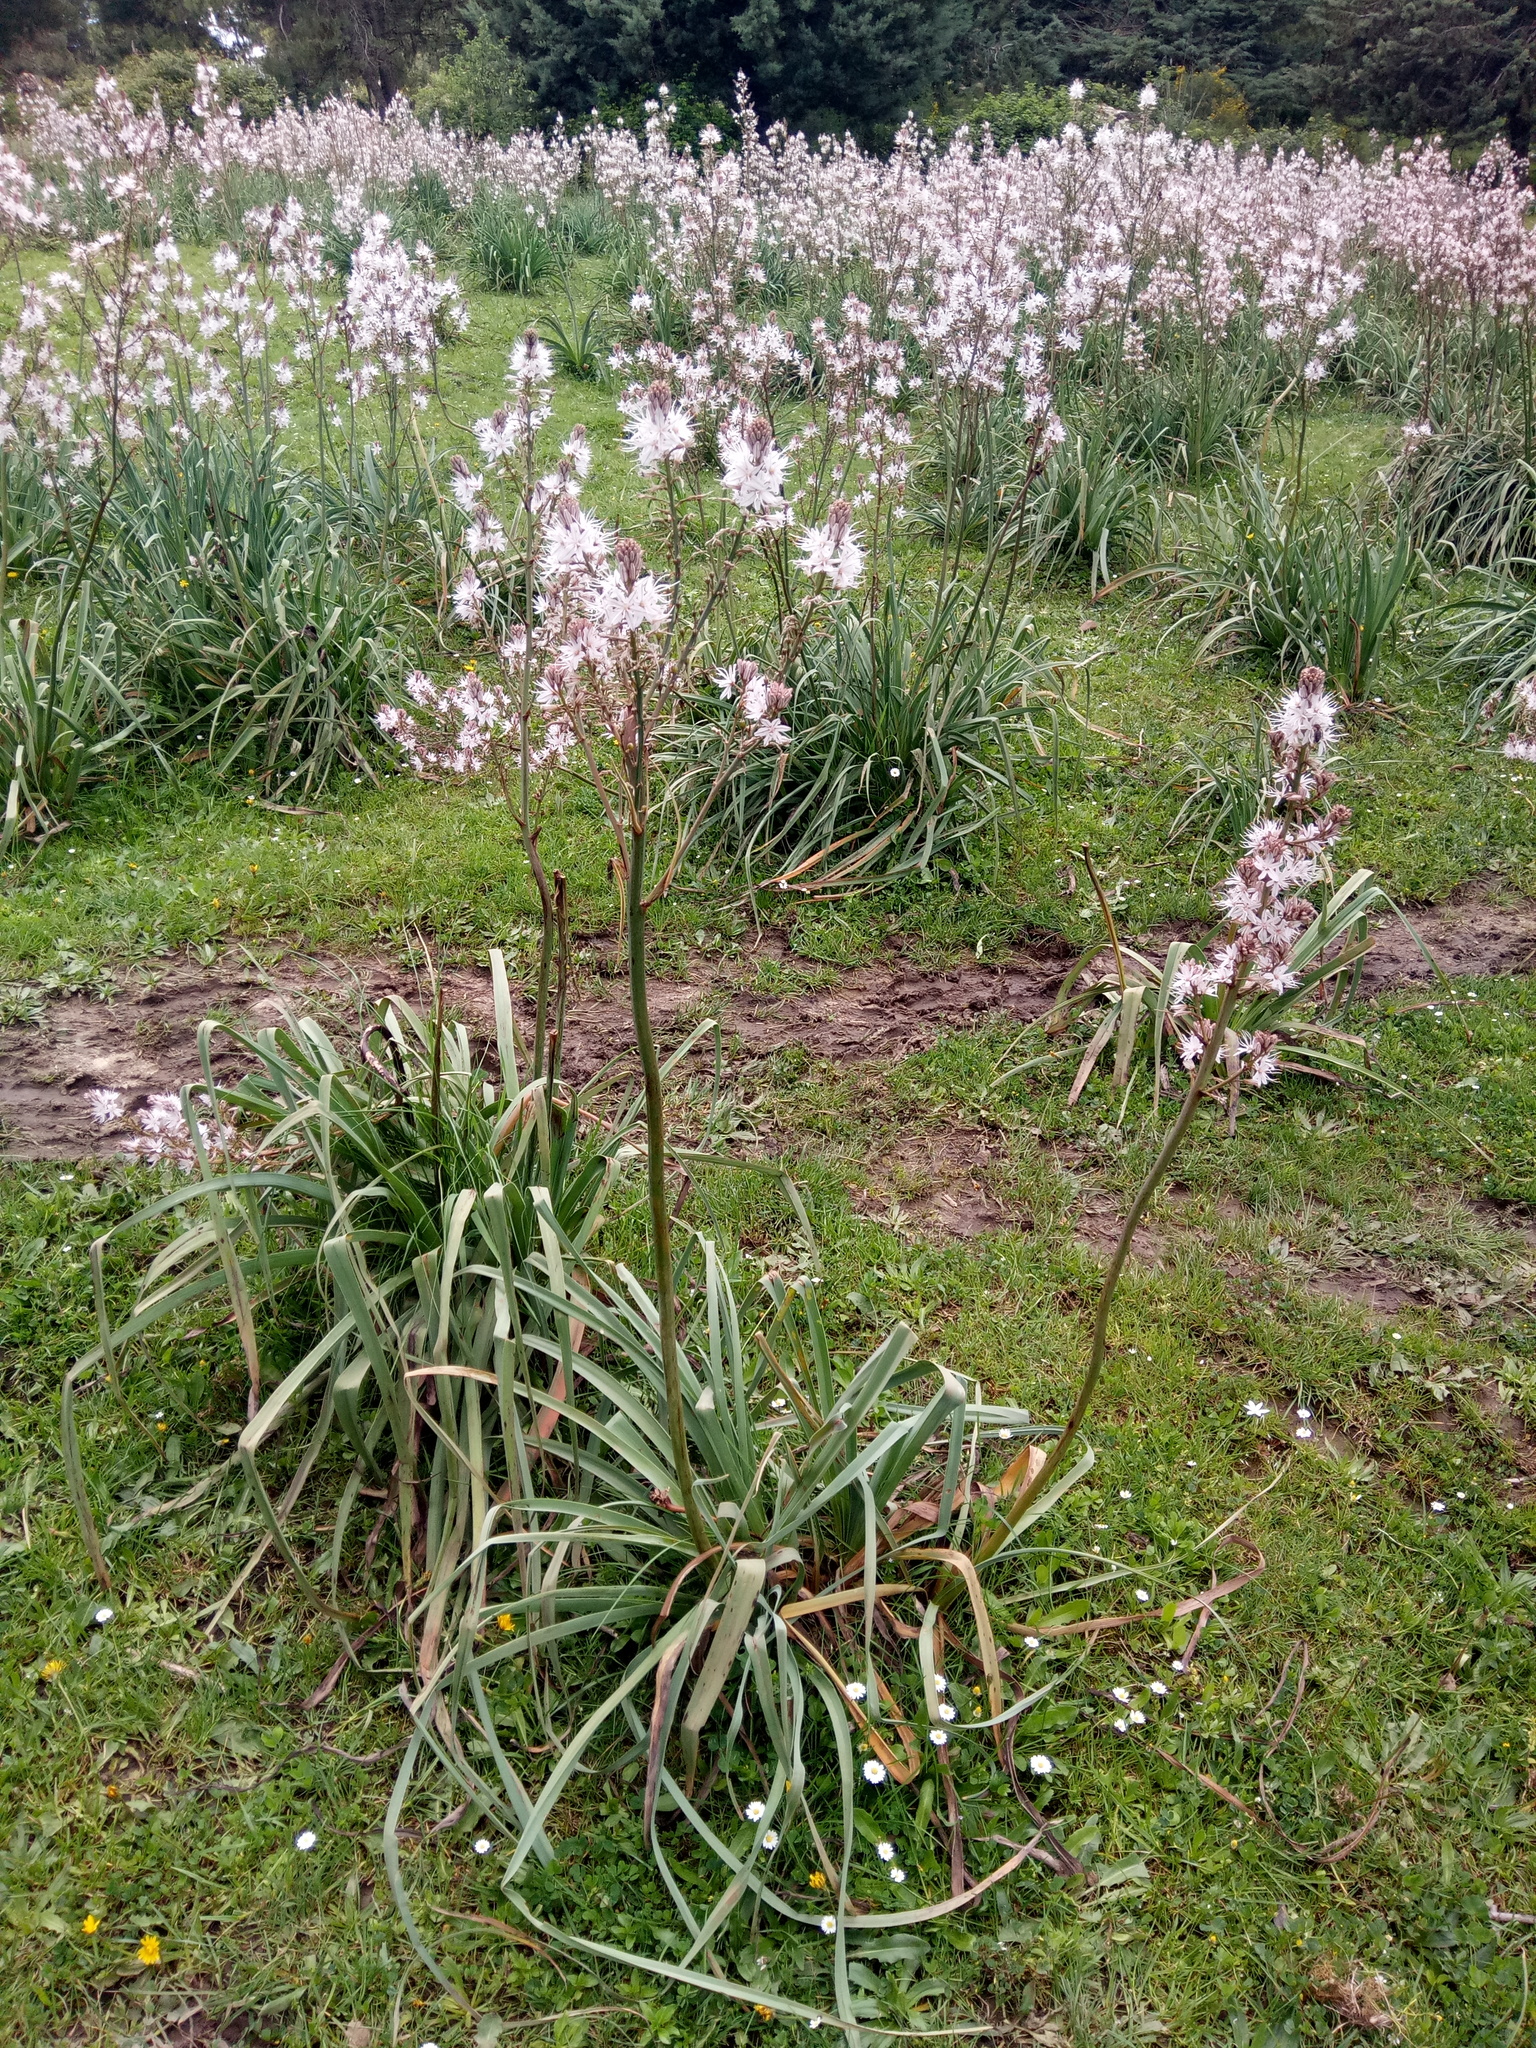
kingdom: Plantae
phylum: Tracheophyta
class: Liliopsida
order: Asparagales
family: Asphodelaceae
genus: Asphodelus
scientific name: Asphodelus ramosus
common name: Silverrod
